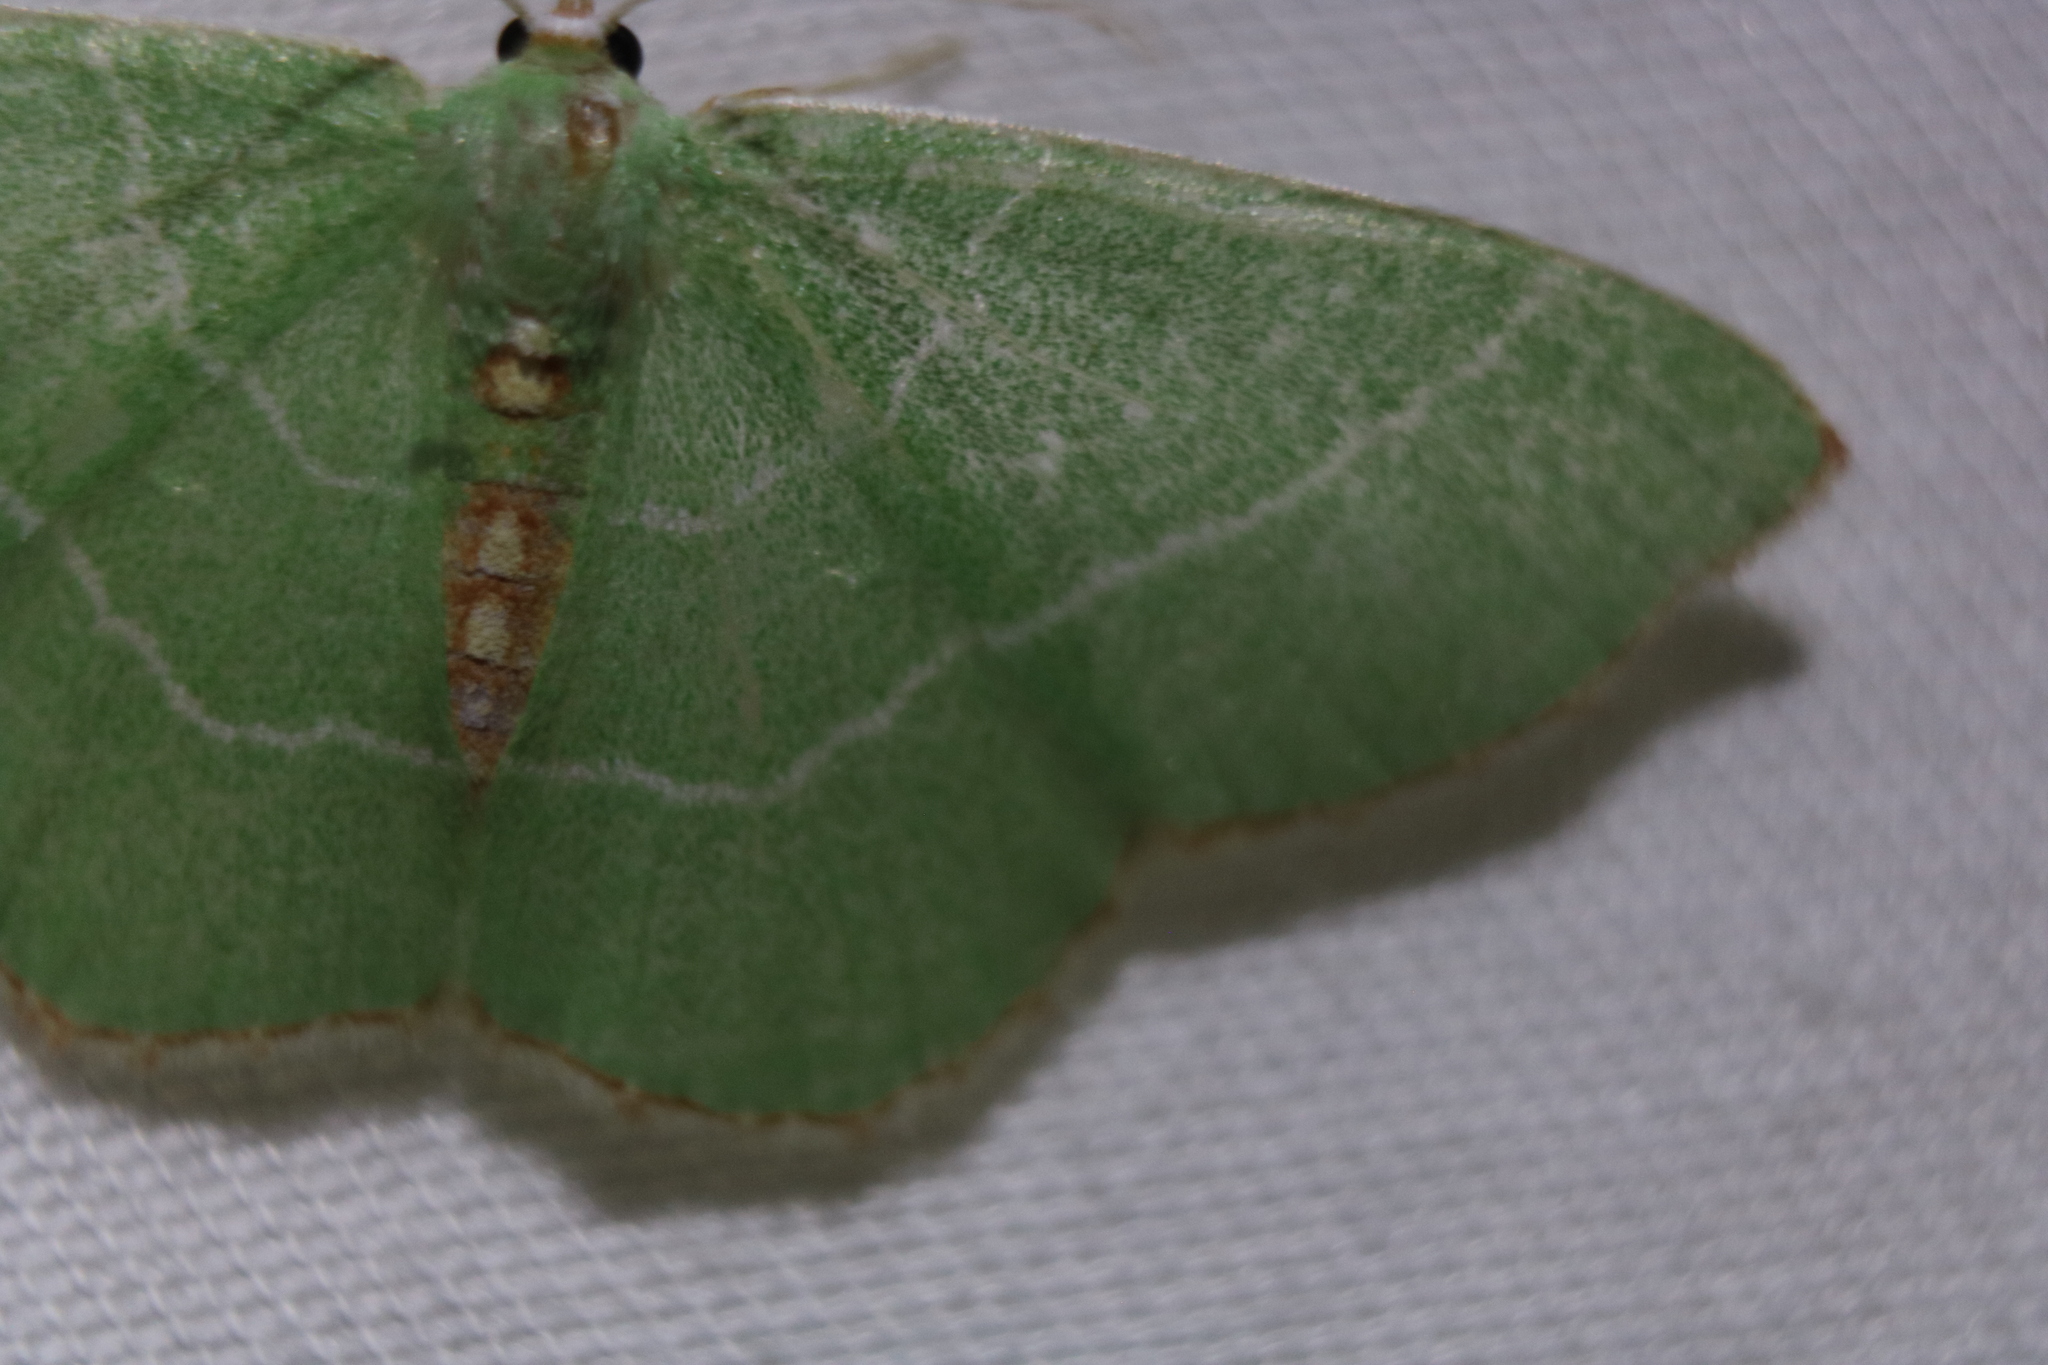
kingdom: Animalia
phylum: Arthropoda
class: Insecta
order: Lepidoptera
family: Geometridae
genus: Nemoria
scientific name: Nemoria bistriaria
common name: Red-fringed emerald
